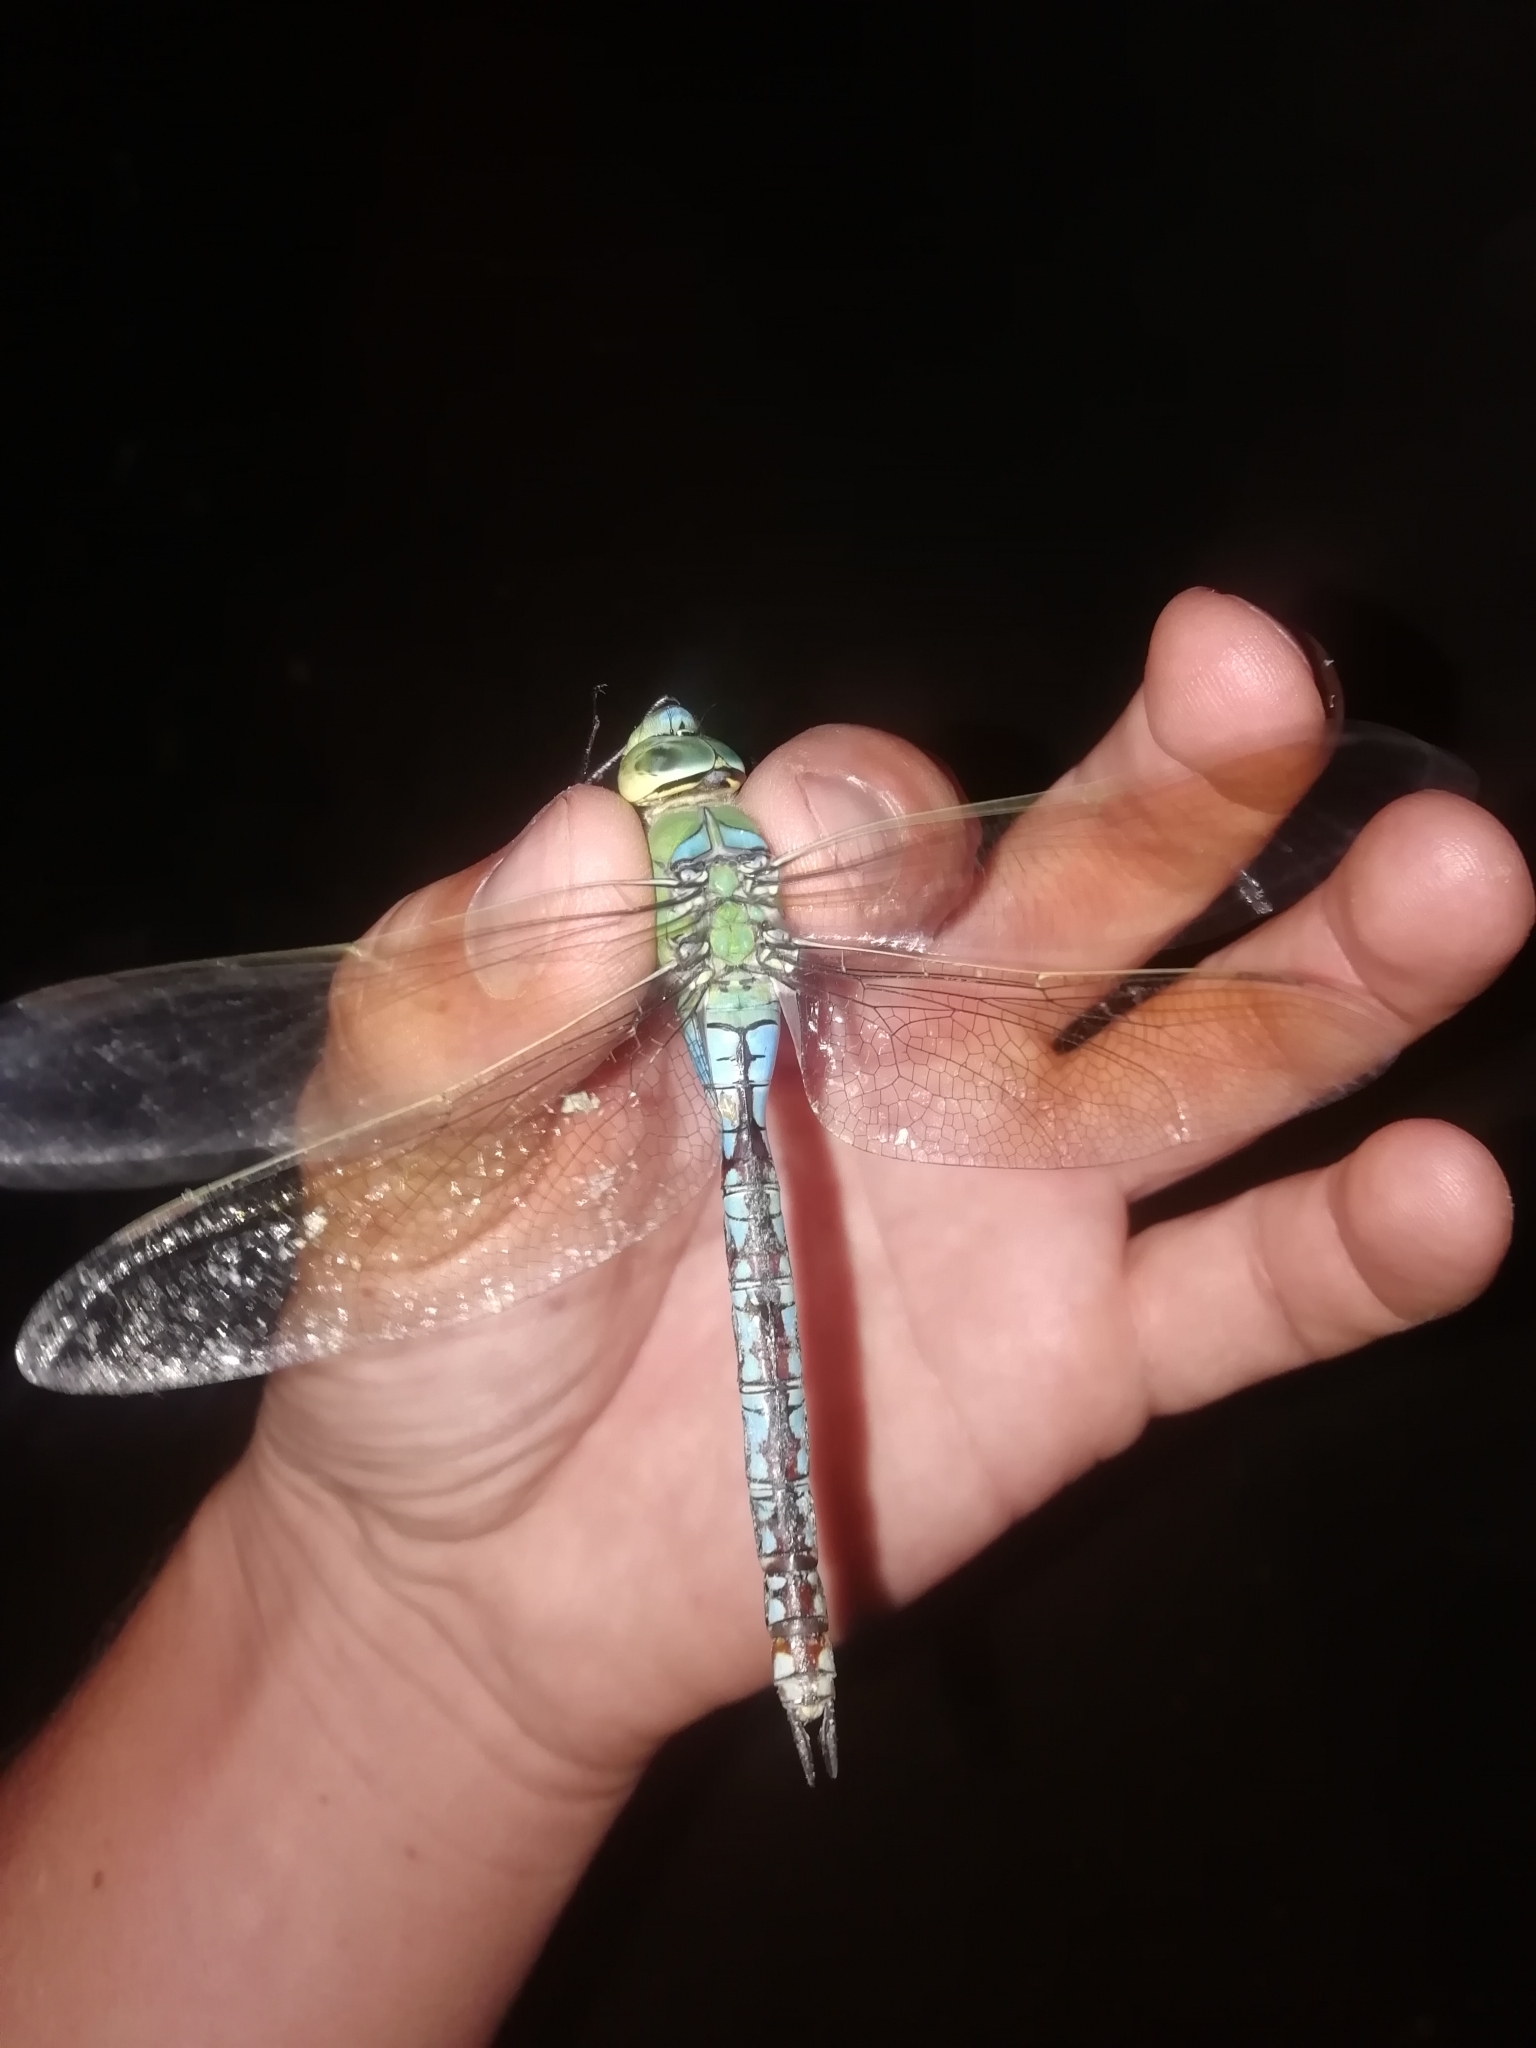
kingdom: Animalia
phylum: Arthropoda
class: Insecta
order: Odonata
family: Aeshnidae
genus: Anax
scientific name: Anax imperator
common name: Emperor dragonfly
